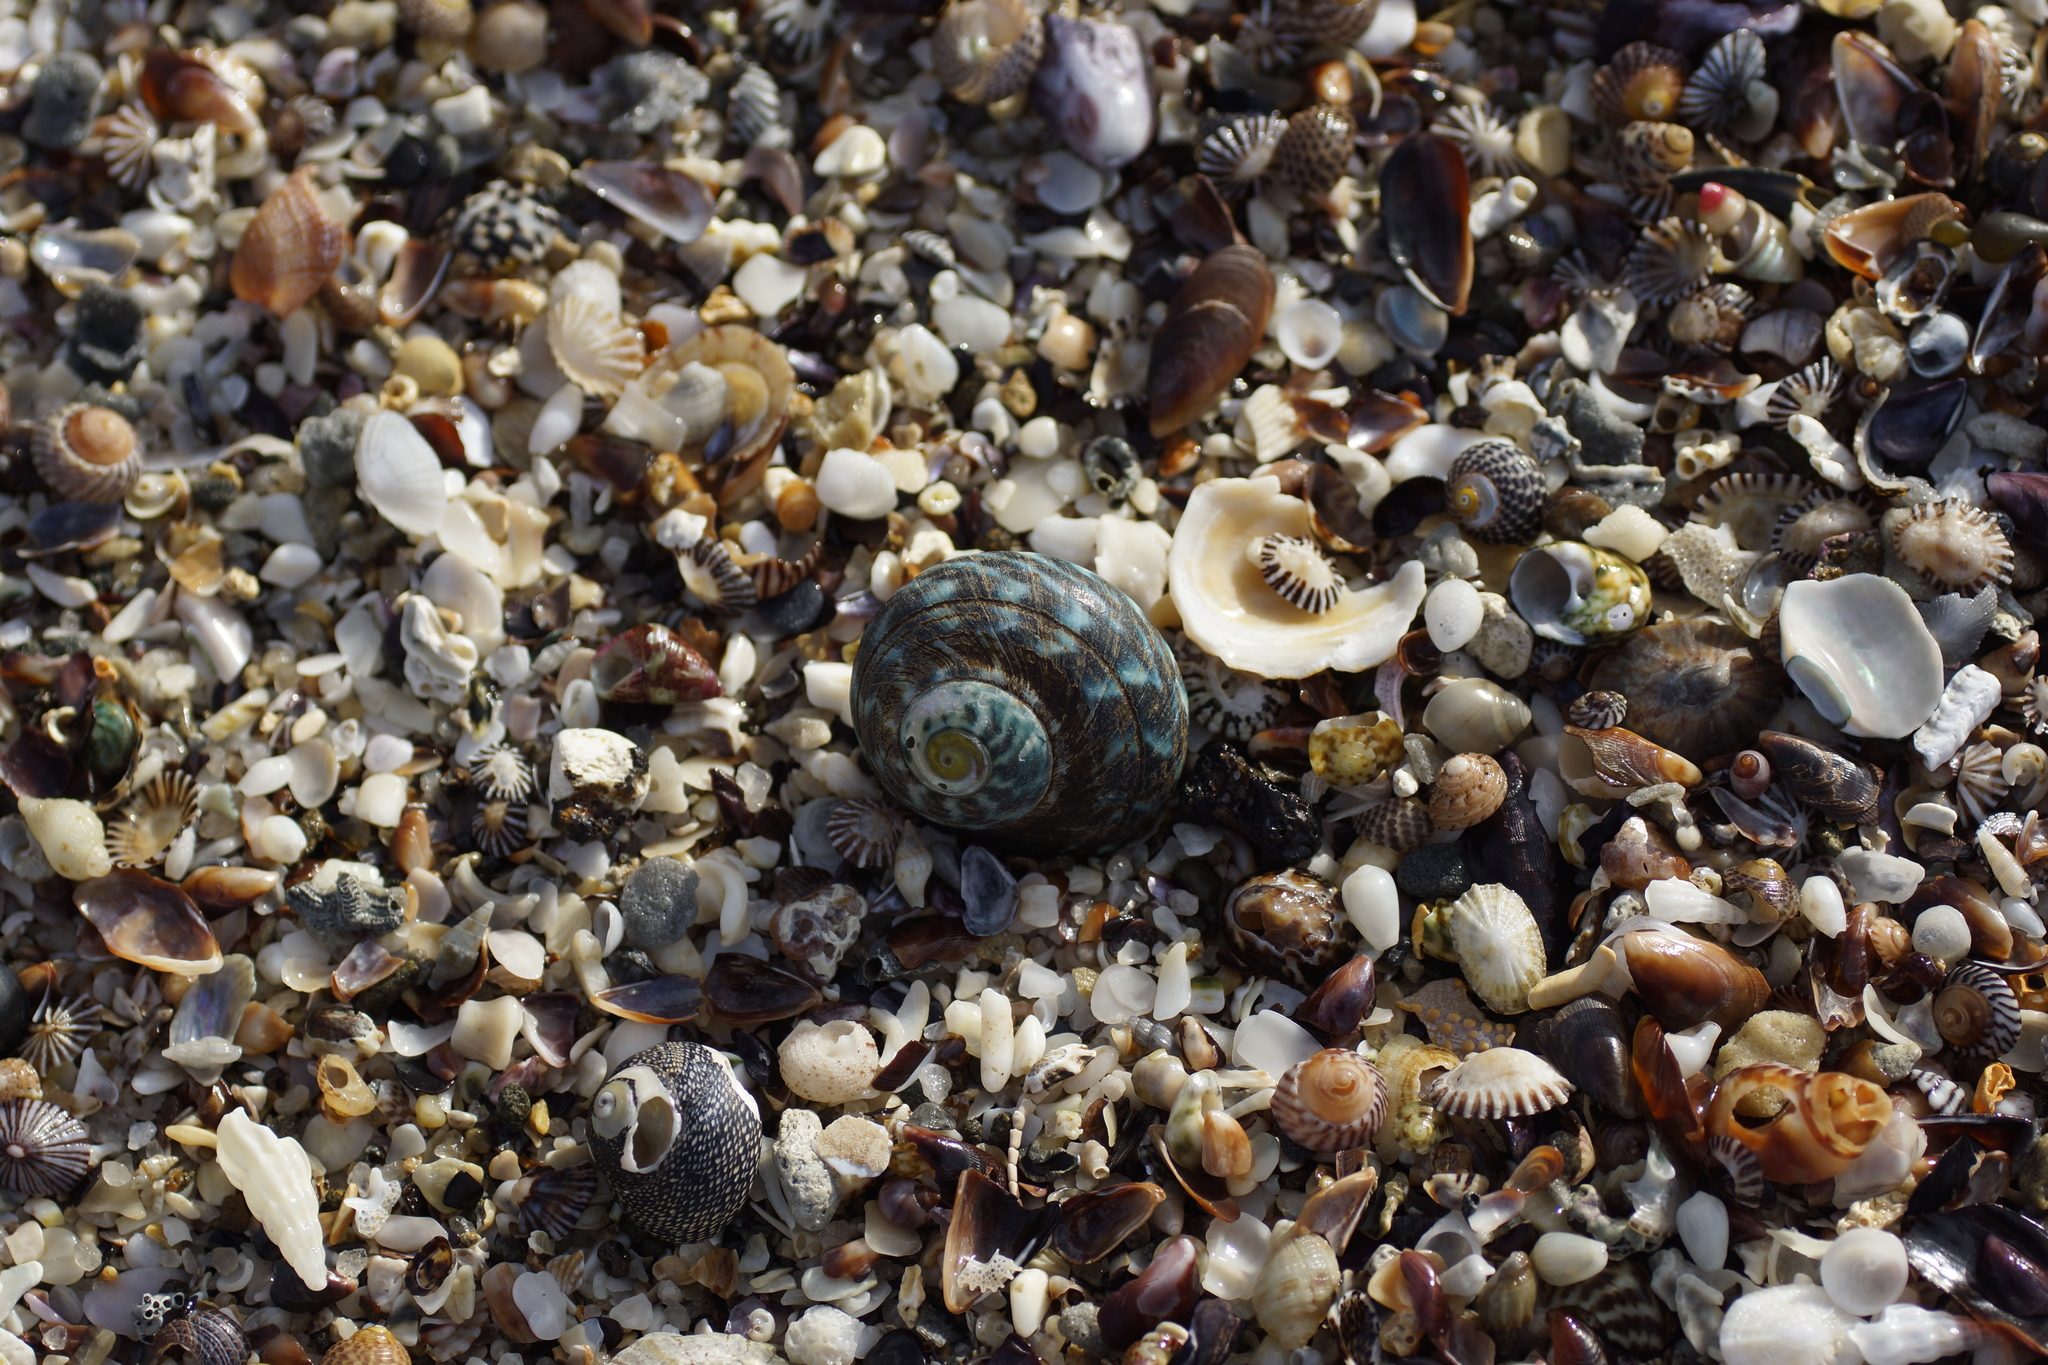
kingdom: Animalia
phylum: Mollusca
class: Gastropoda
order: Trochida
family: Turbinidae
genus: Lunella
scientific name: Lunella undulata
